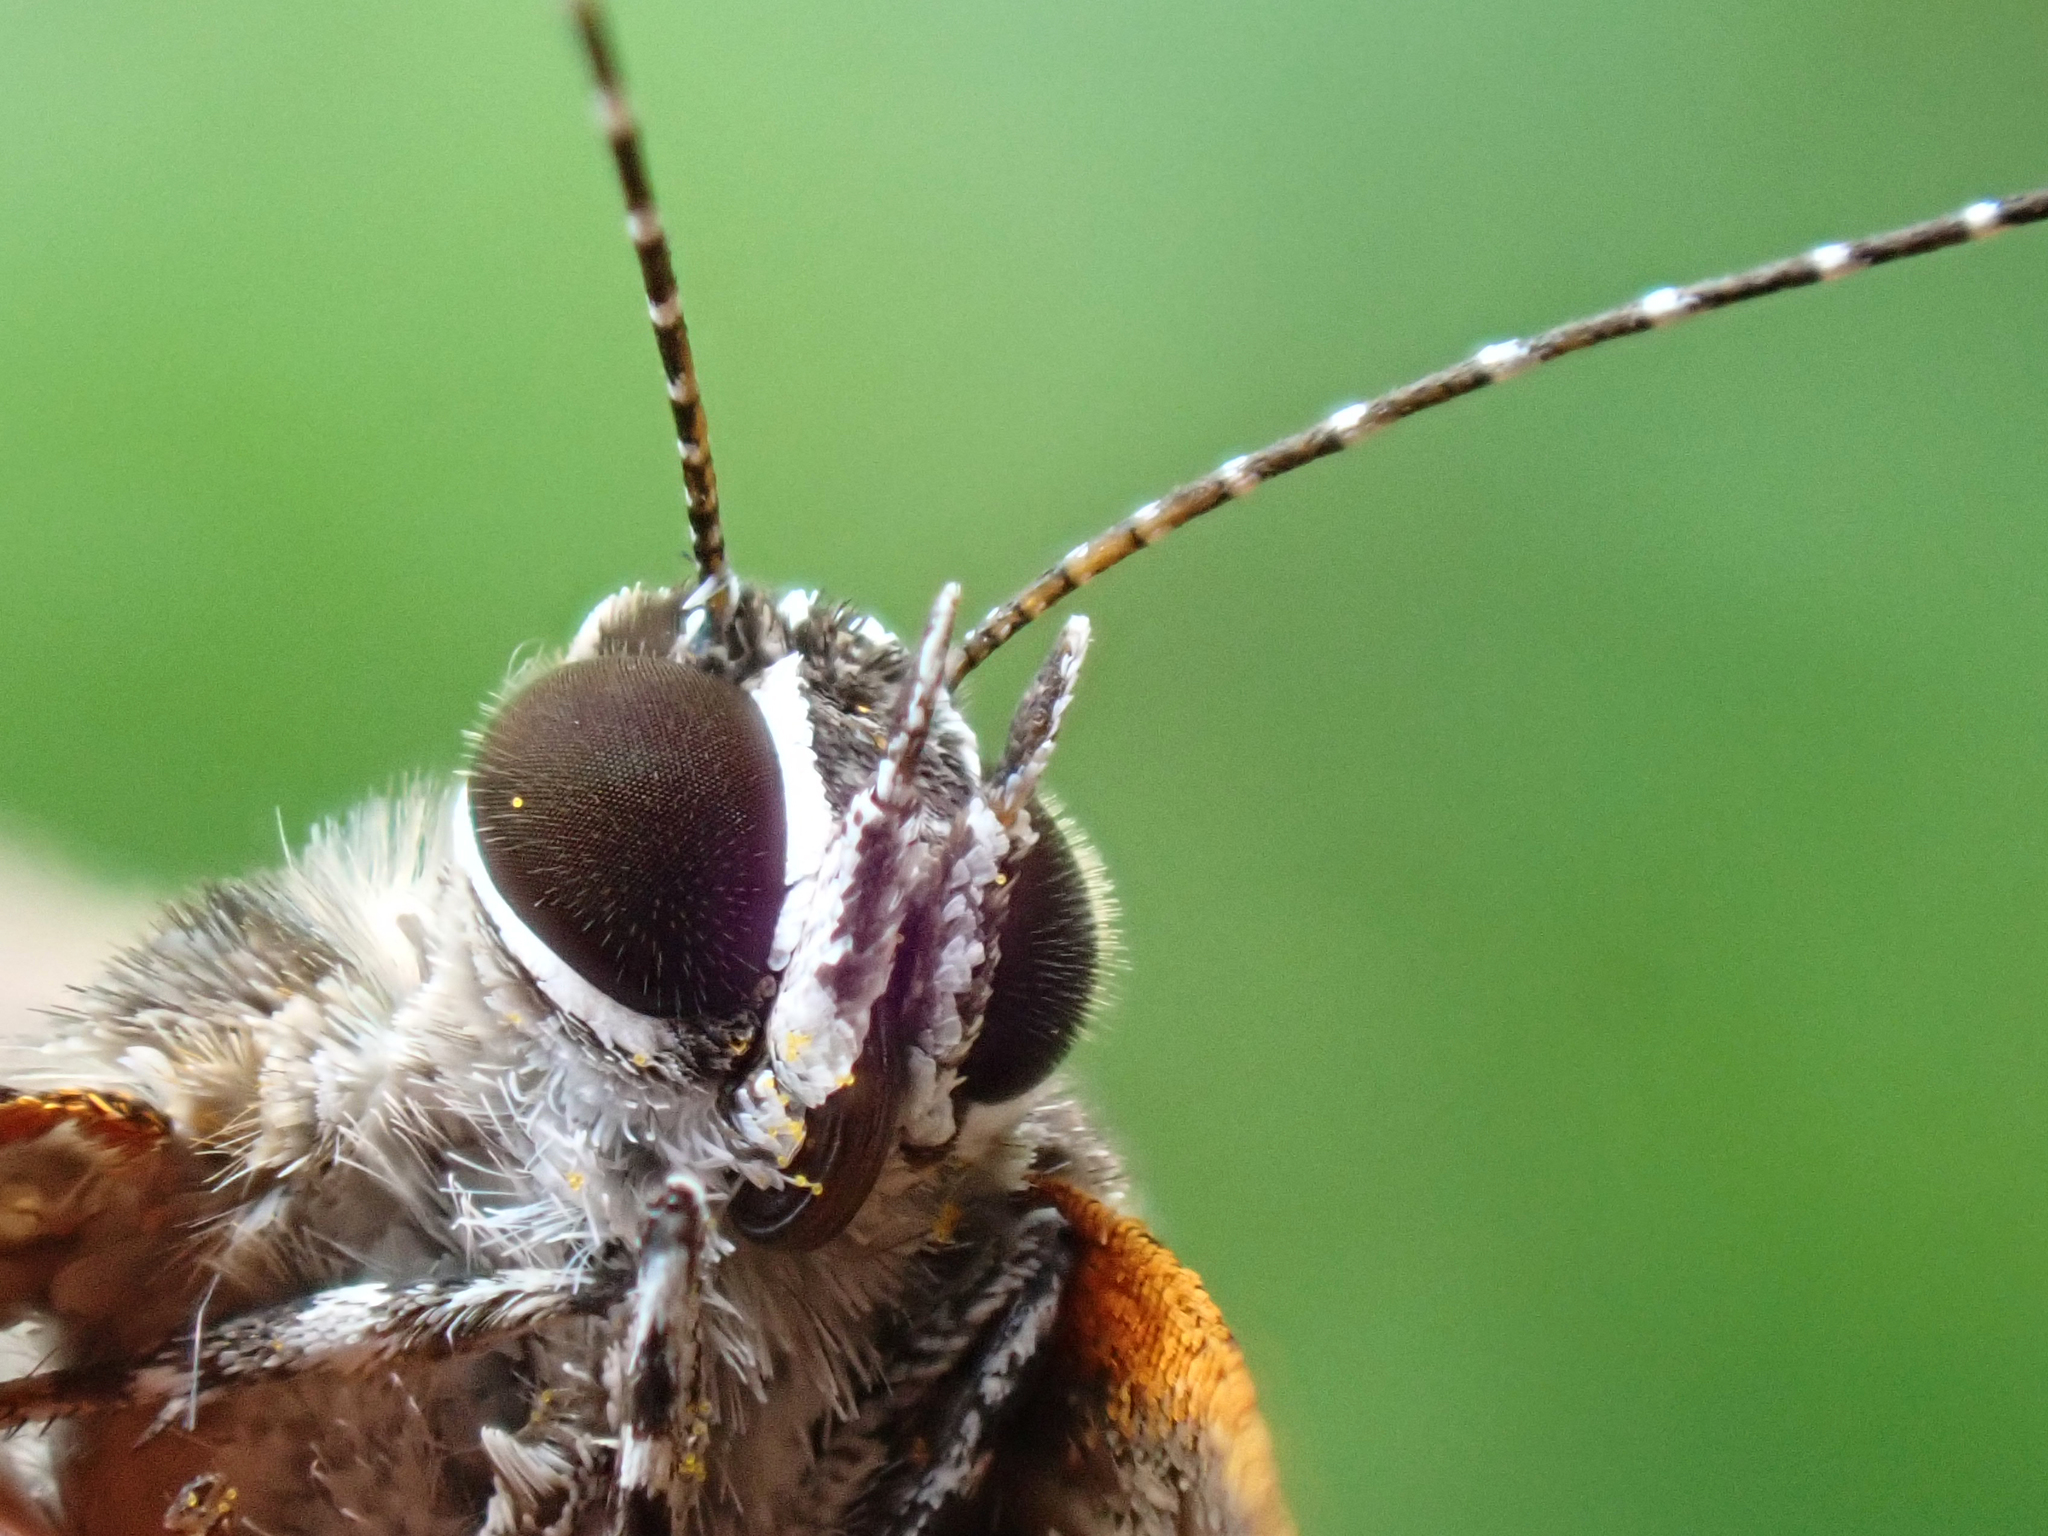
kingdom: Animalia
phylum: Arthropoda
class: Insecta
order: Lepidoptera
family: Lycaenidae
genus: Thecla
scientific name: Thecla angelia
